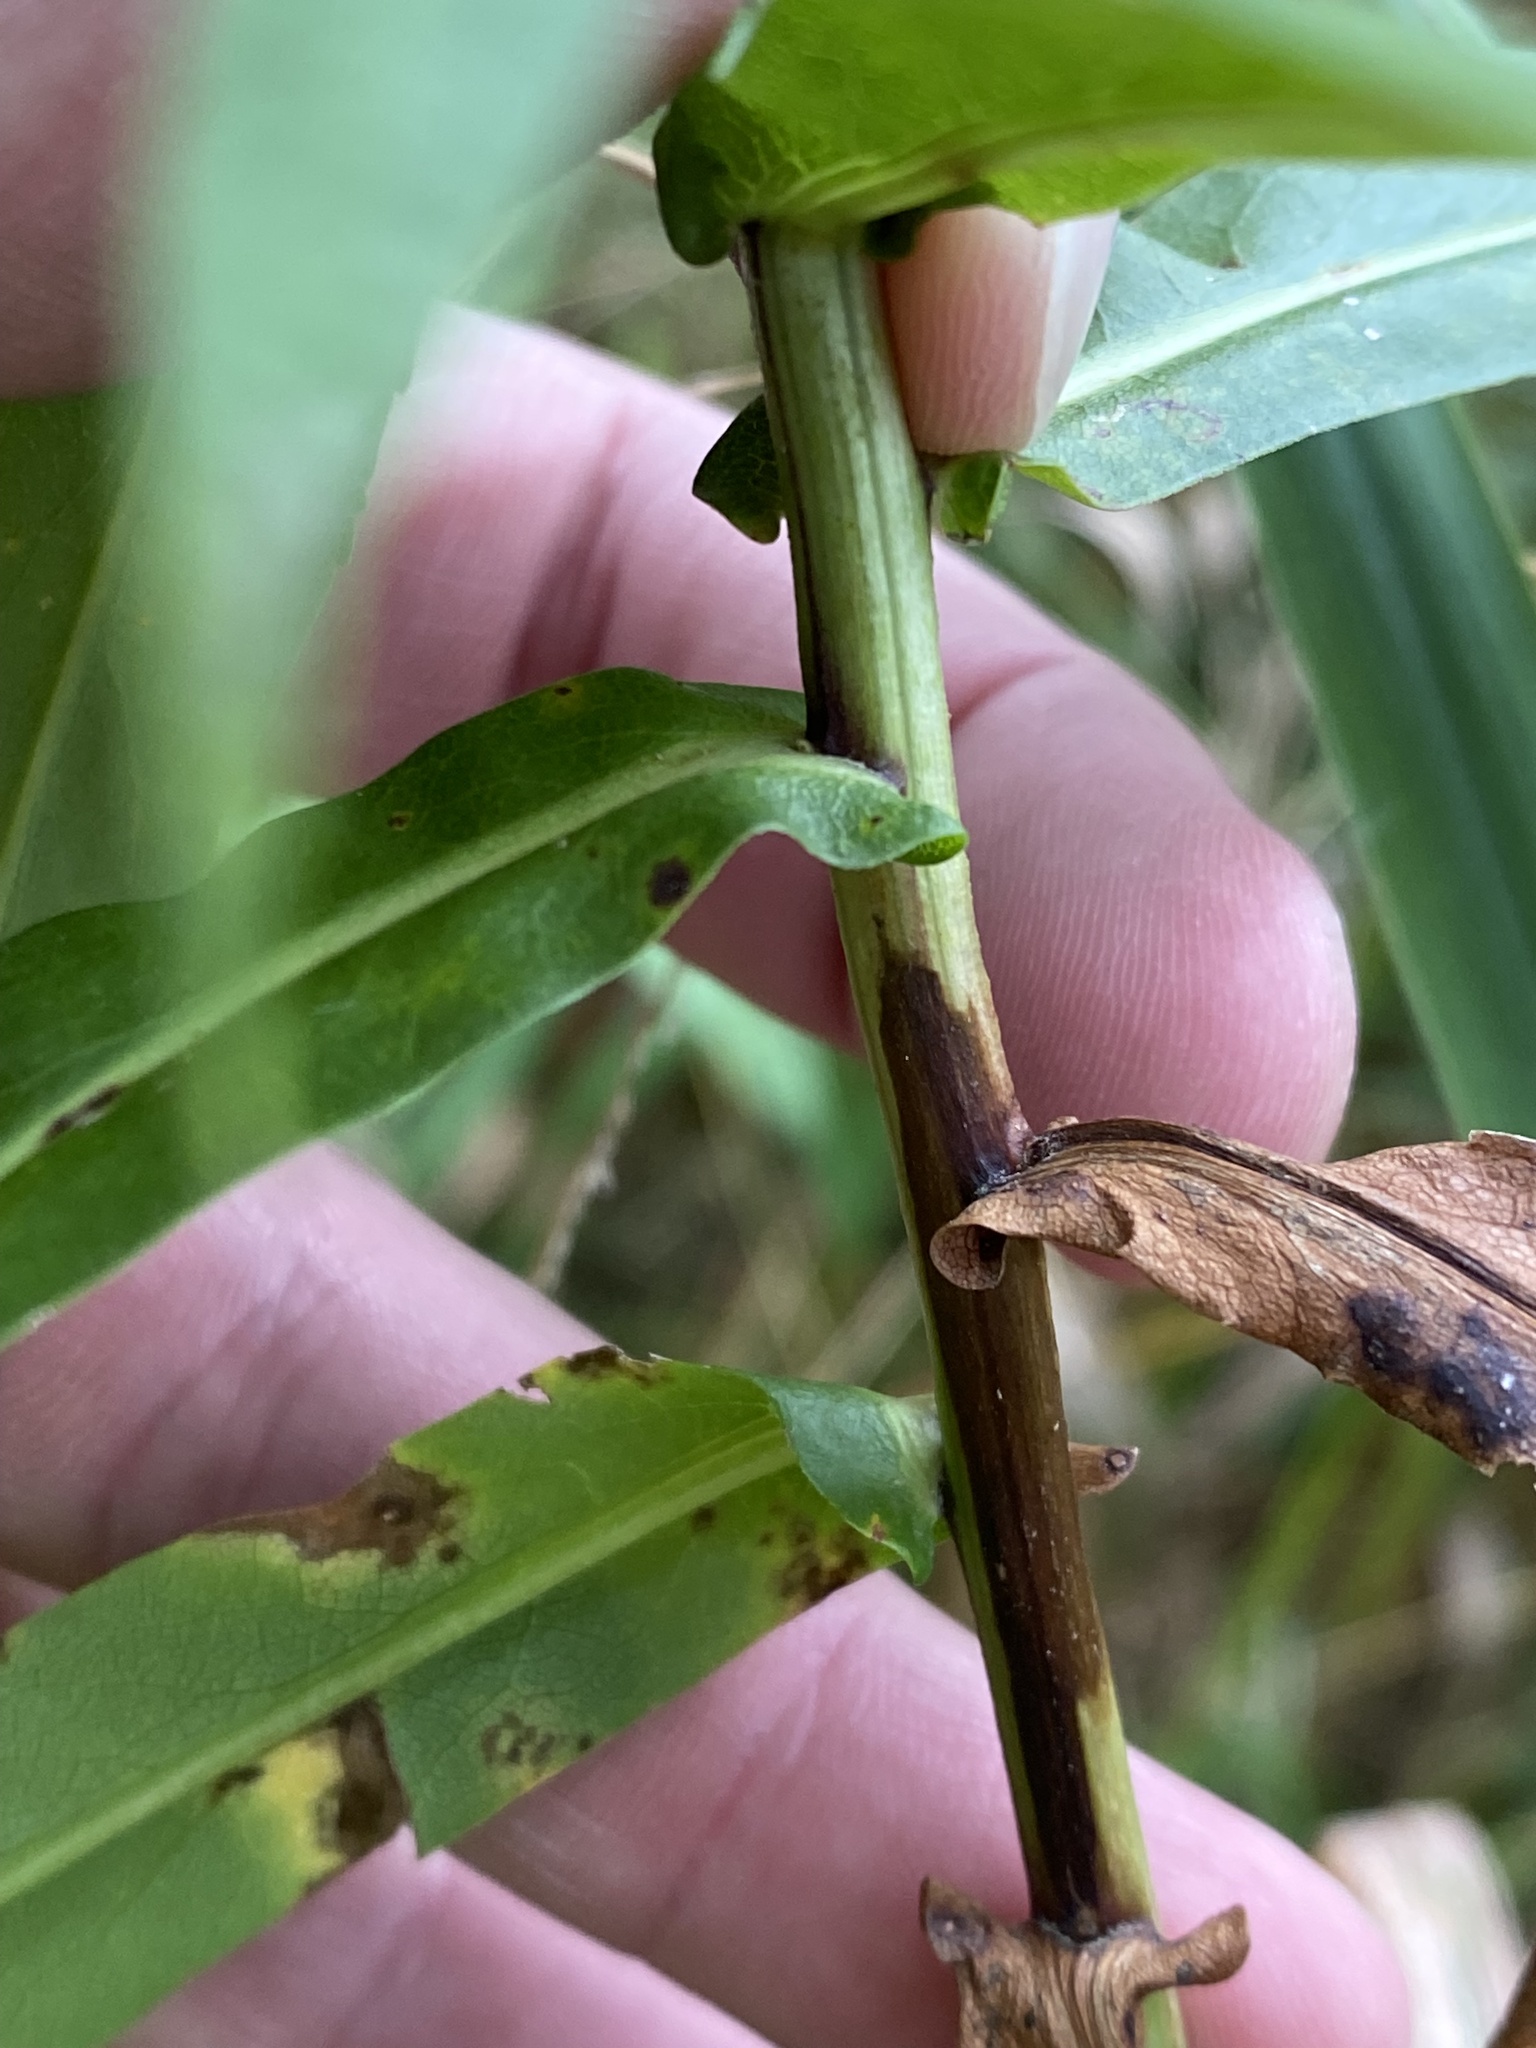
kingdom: Plantae
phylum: Tracheophyta
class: Magnoliopsida
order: Asterales
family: Asteraceae
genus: Symphyotrichum
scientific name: Symphyotrichum firmum
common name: Shining aster
